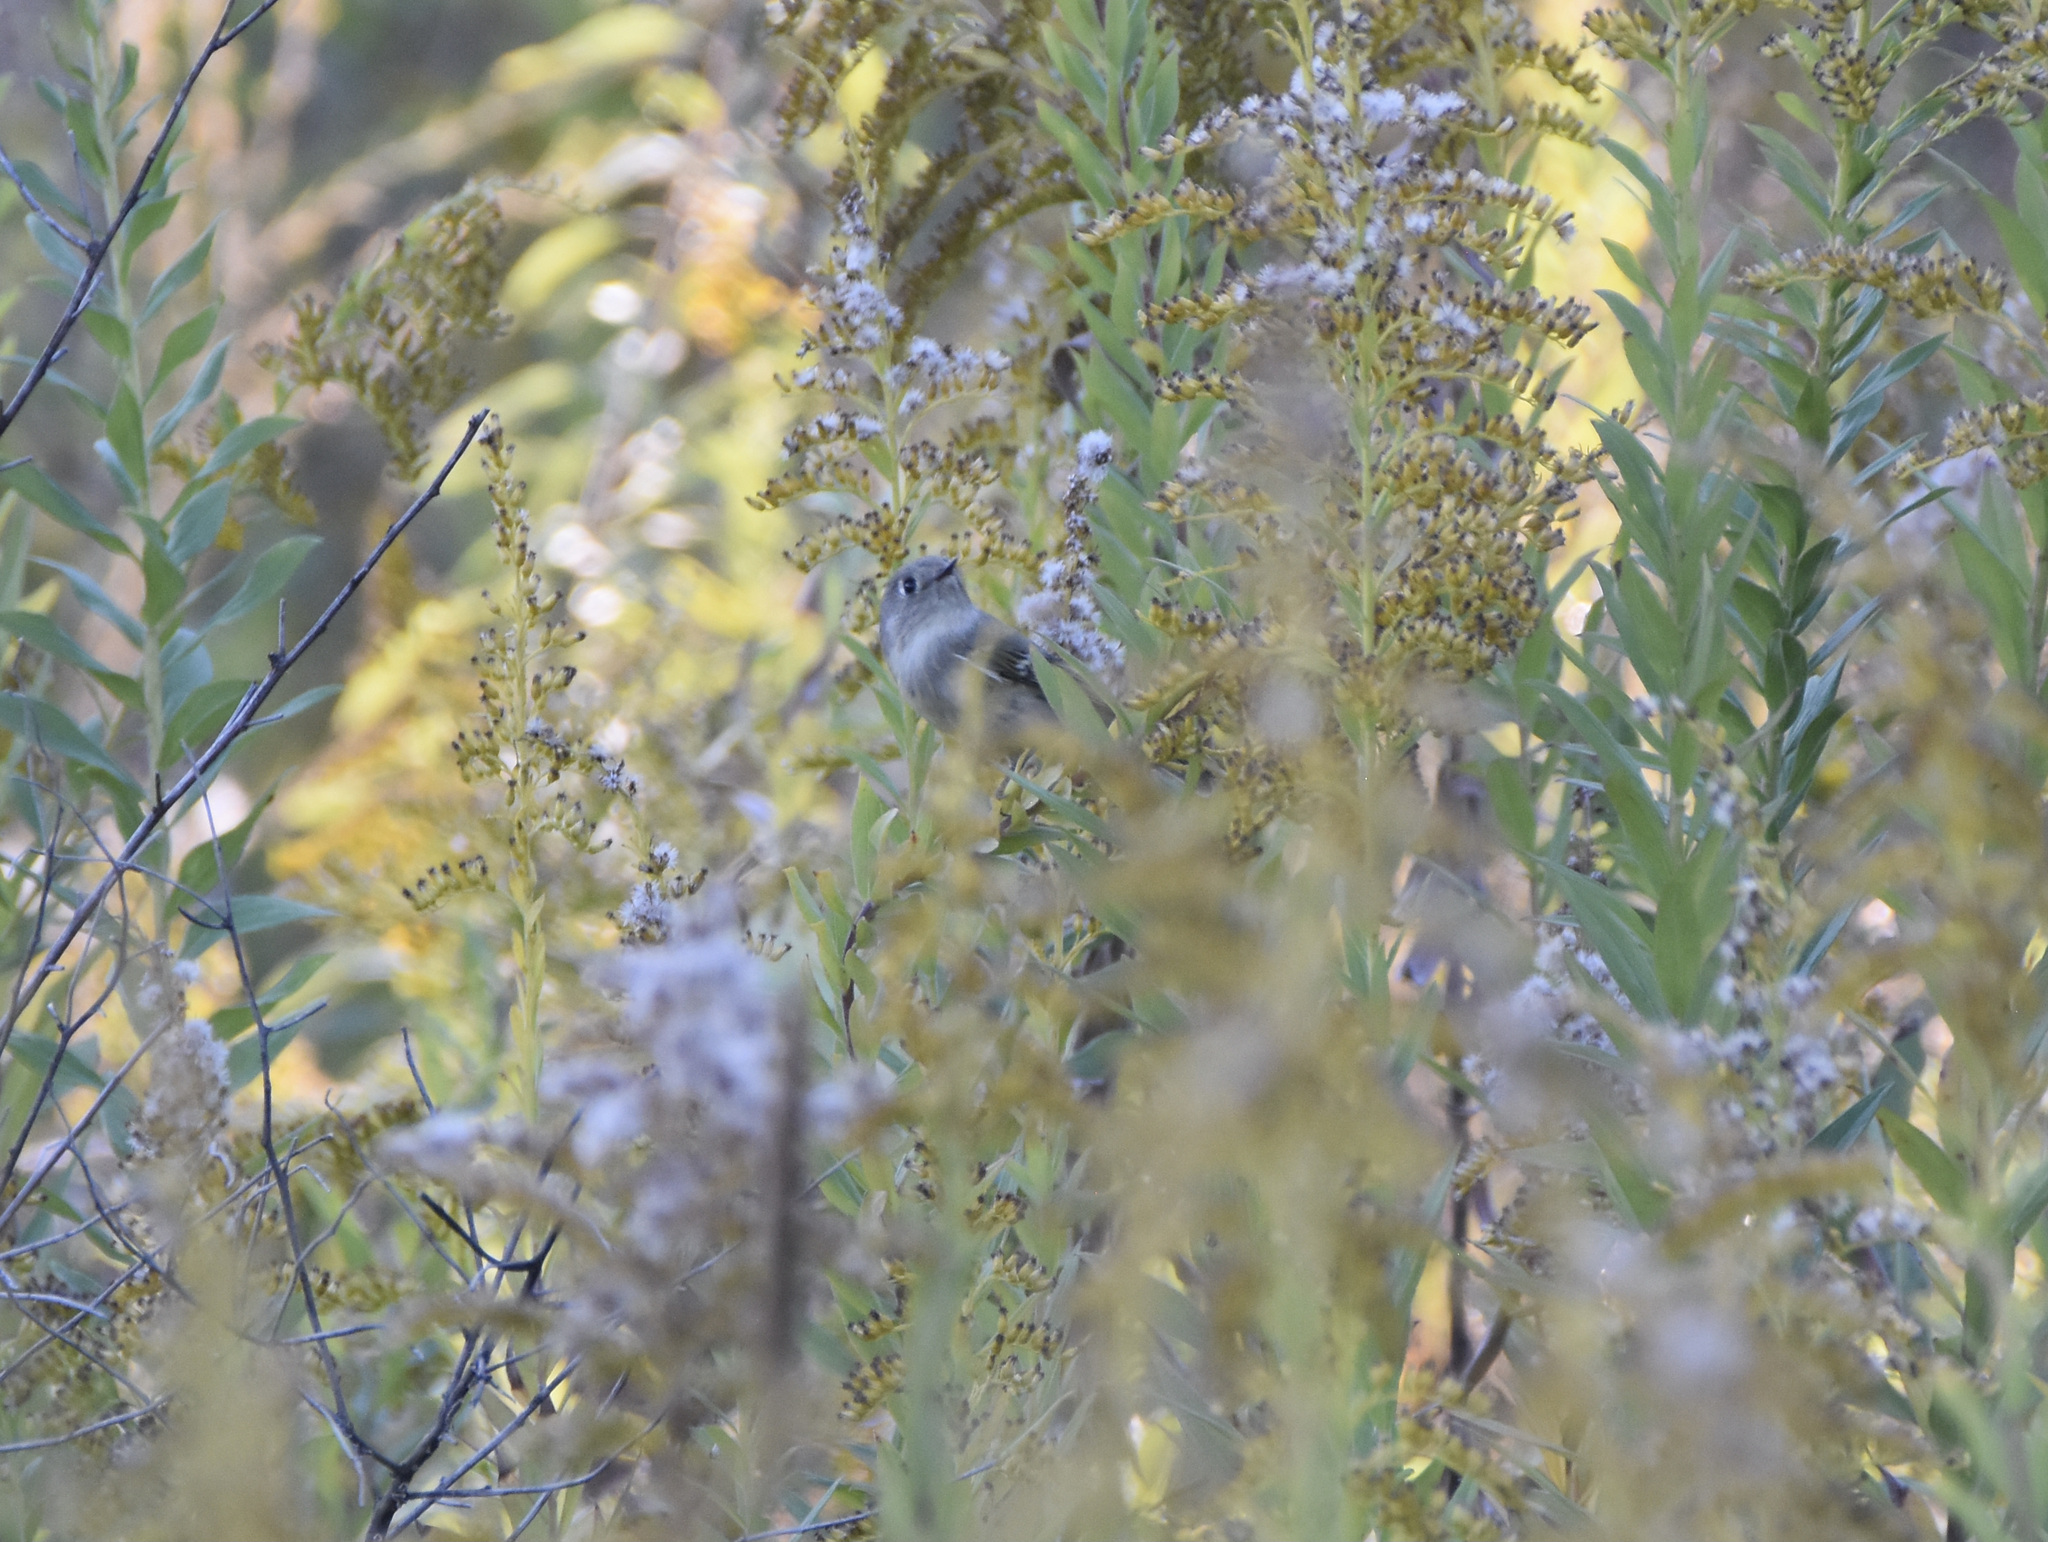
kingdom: Animalia
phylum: Chordata
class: Aves
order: Passeriformes
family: Regulidae
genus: Regulus
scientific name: Regulus calendula
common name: Ruby-crowned kinglet
